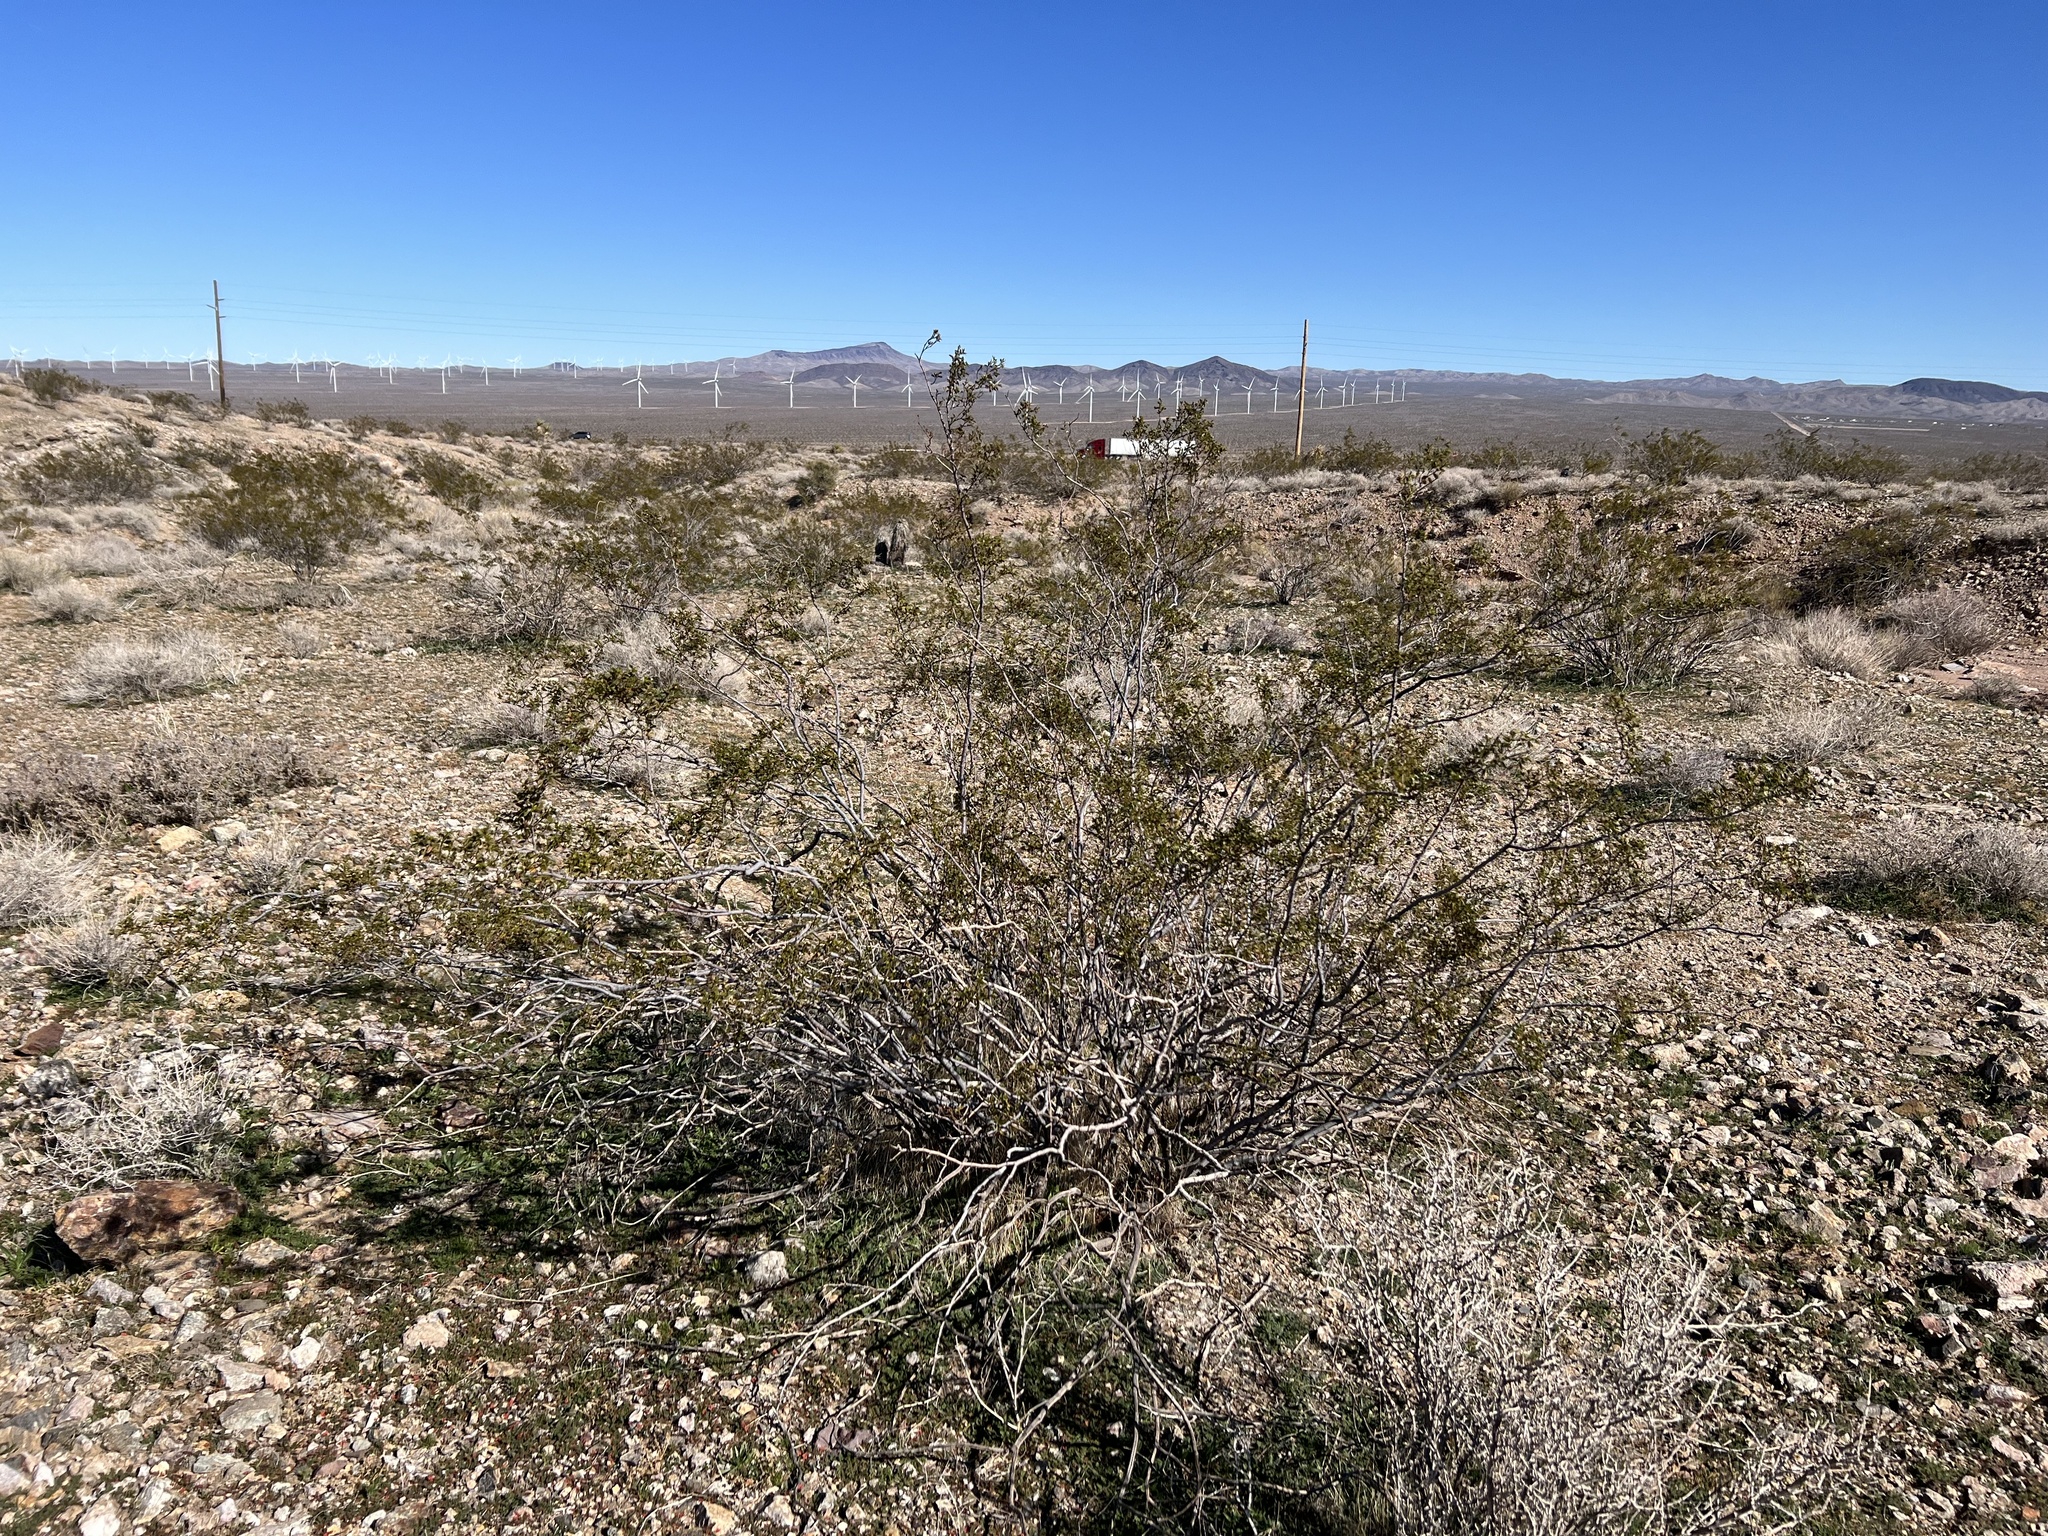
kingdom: Plantae
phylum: Tracheophyta
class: Magnoliopsida
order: Zygophyllales
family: Zygophyllaceae
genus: Larrea
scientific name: Larrea tridentata
